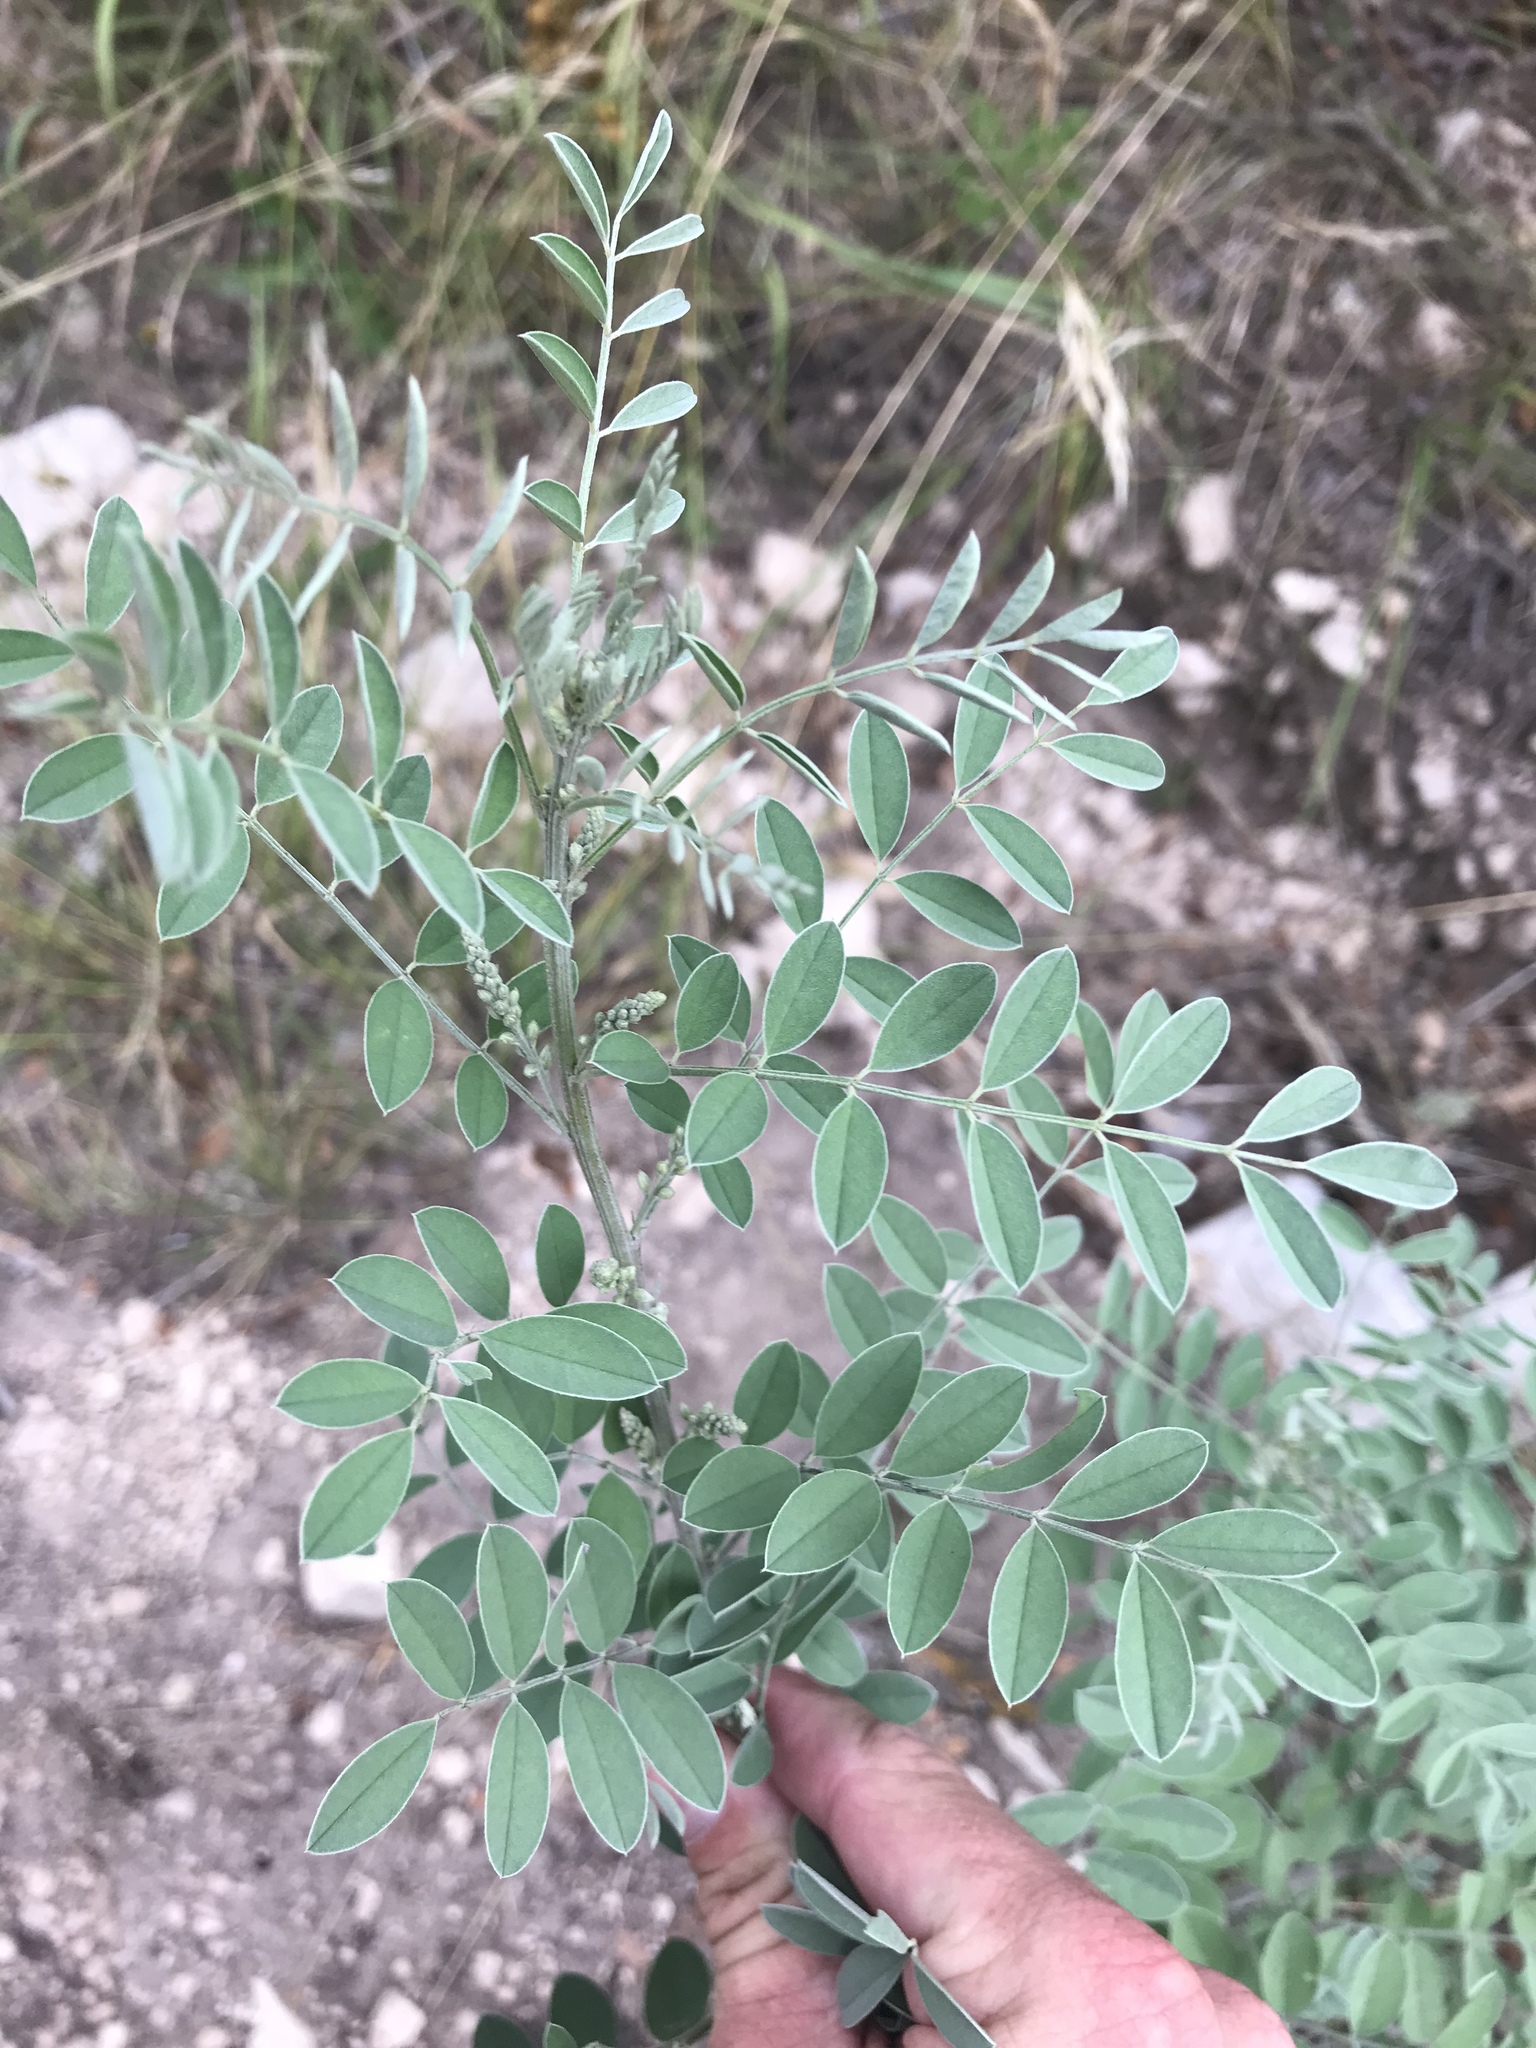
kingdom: Plantae
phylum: Tracheophyta
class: Magnoliopsida
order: Fabales
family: Fabaceae
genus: Indigofera
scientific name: Indigofera lindheimeriana
